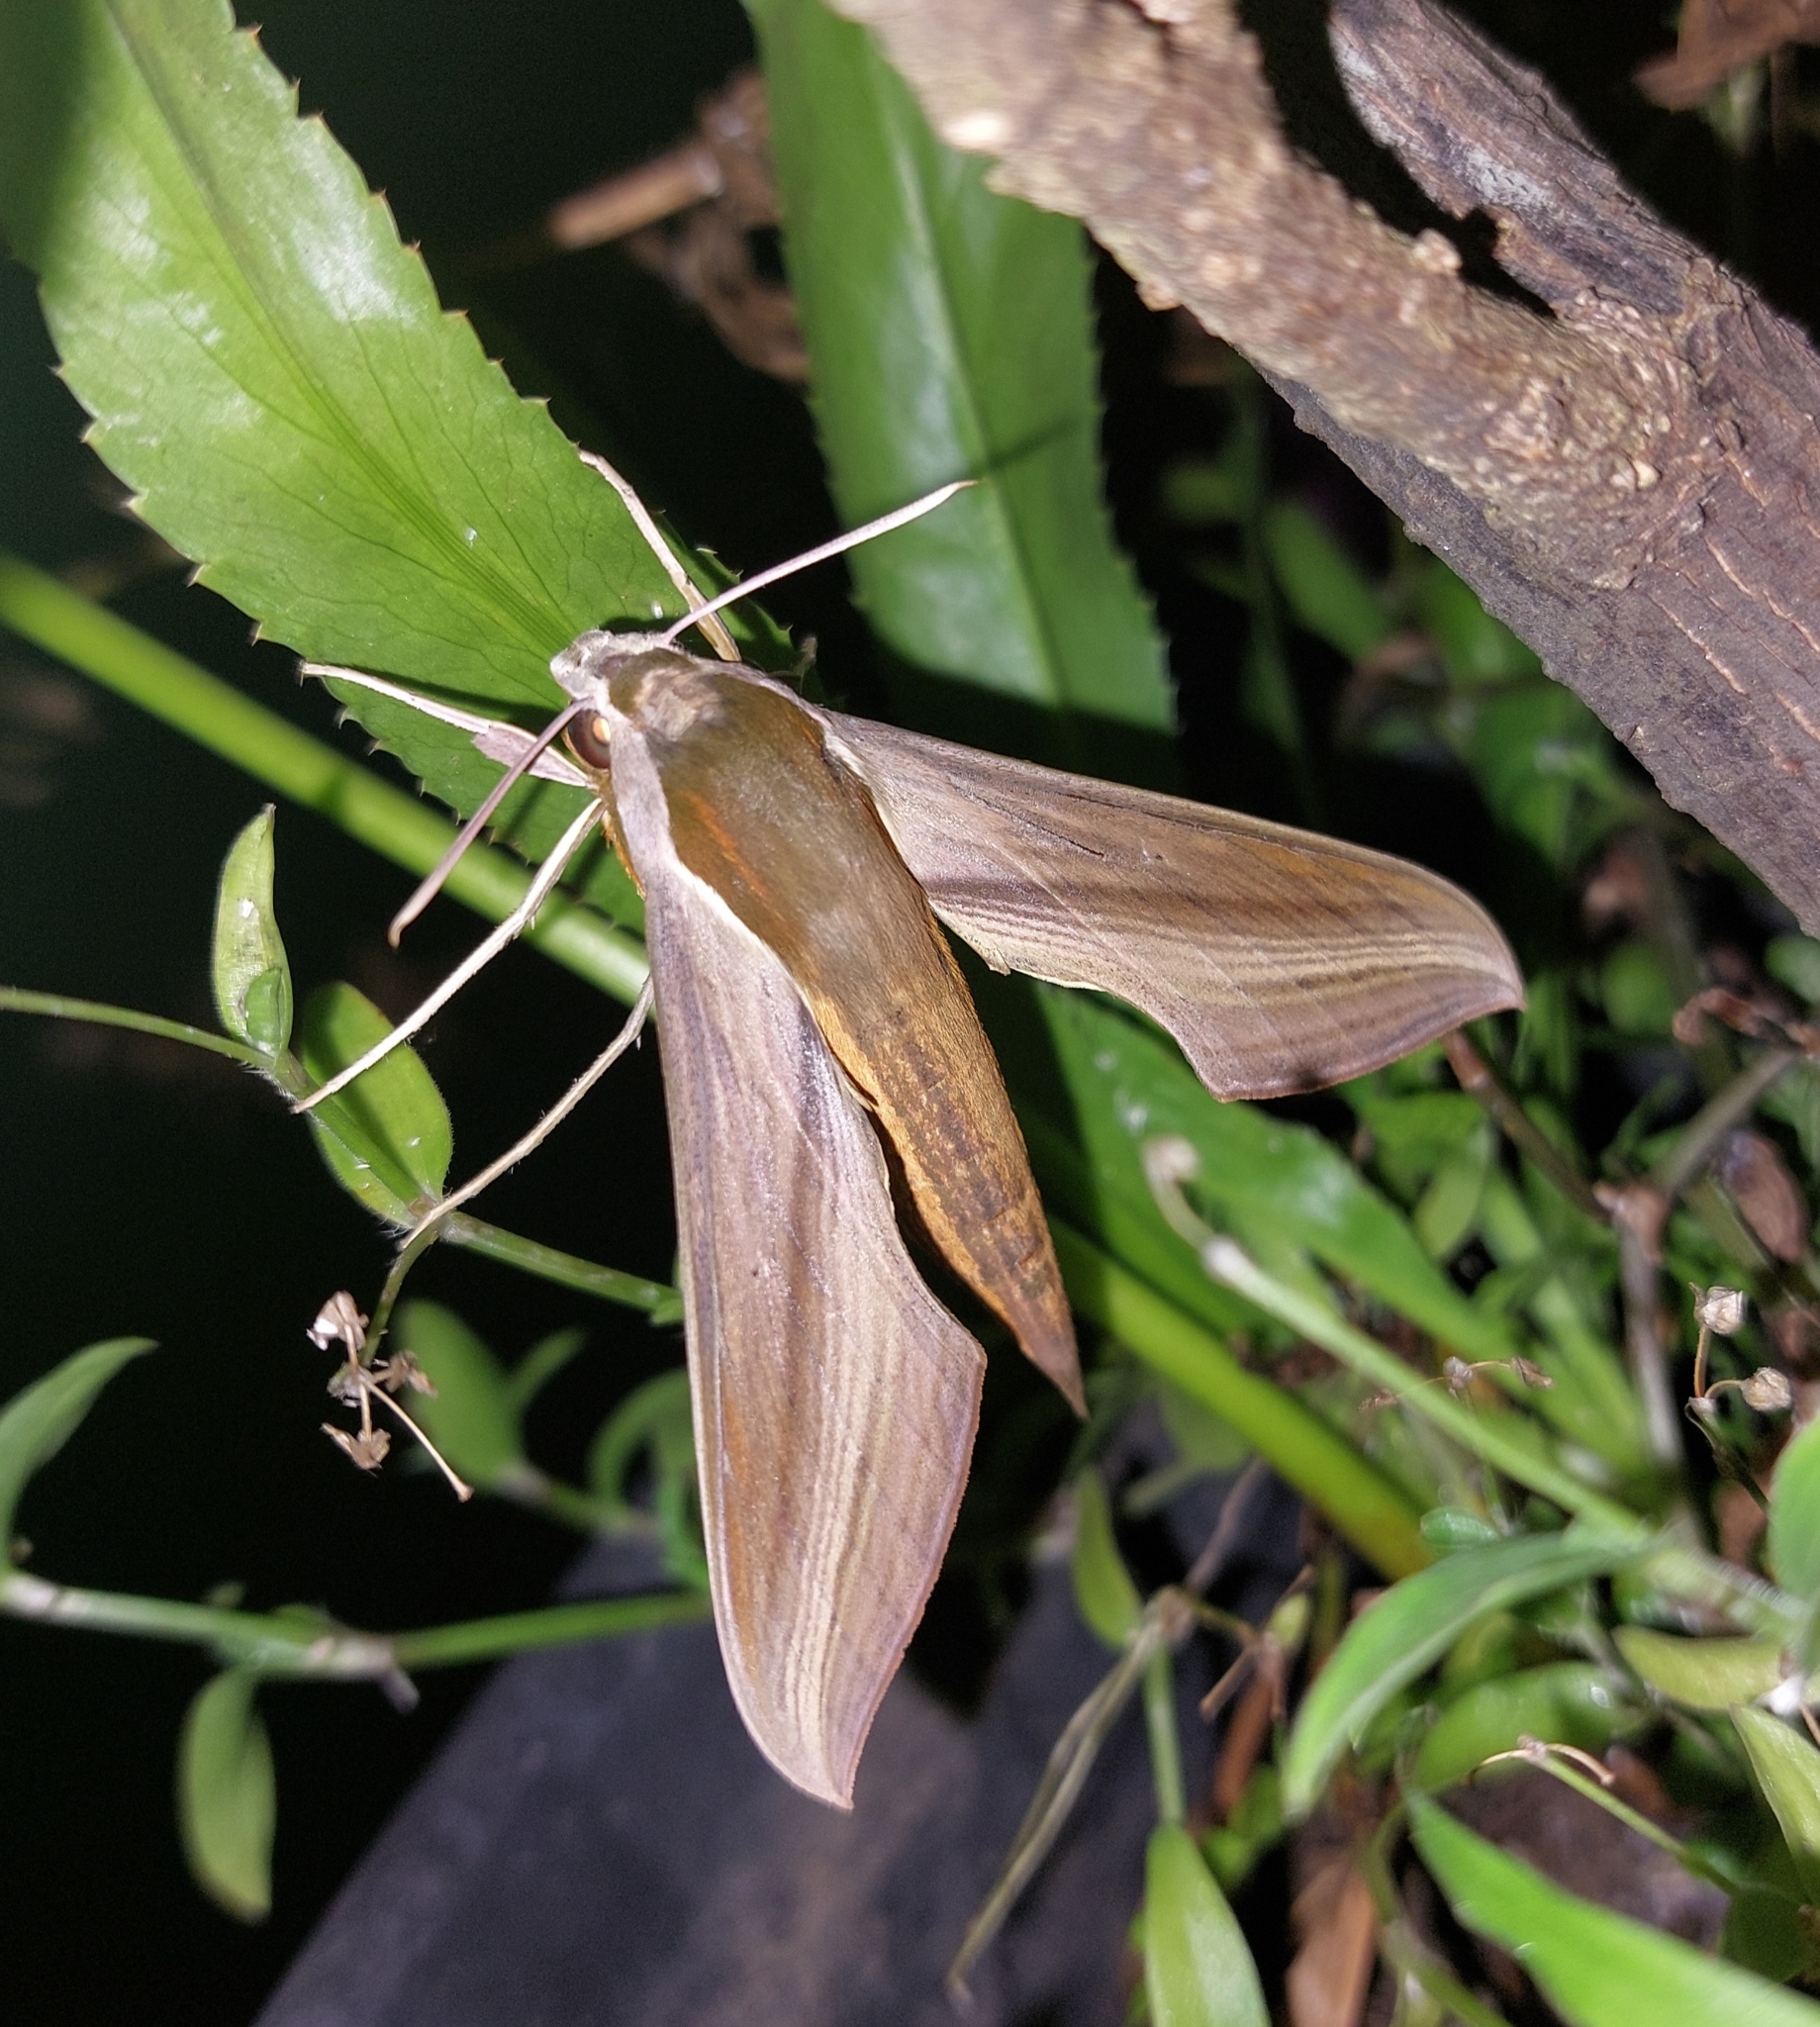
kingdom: Animalia
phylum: Arthropoda
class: Insecta
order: Lepidoptera
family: Sphingidae
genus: Xylophanes
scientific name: Xylophanes tersa
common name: Tersa sphinx
